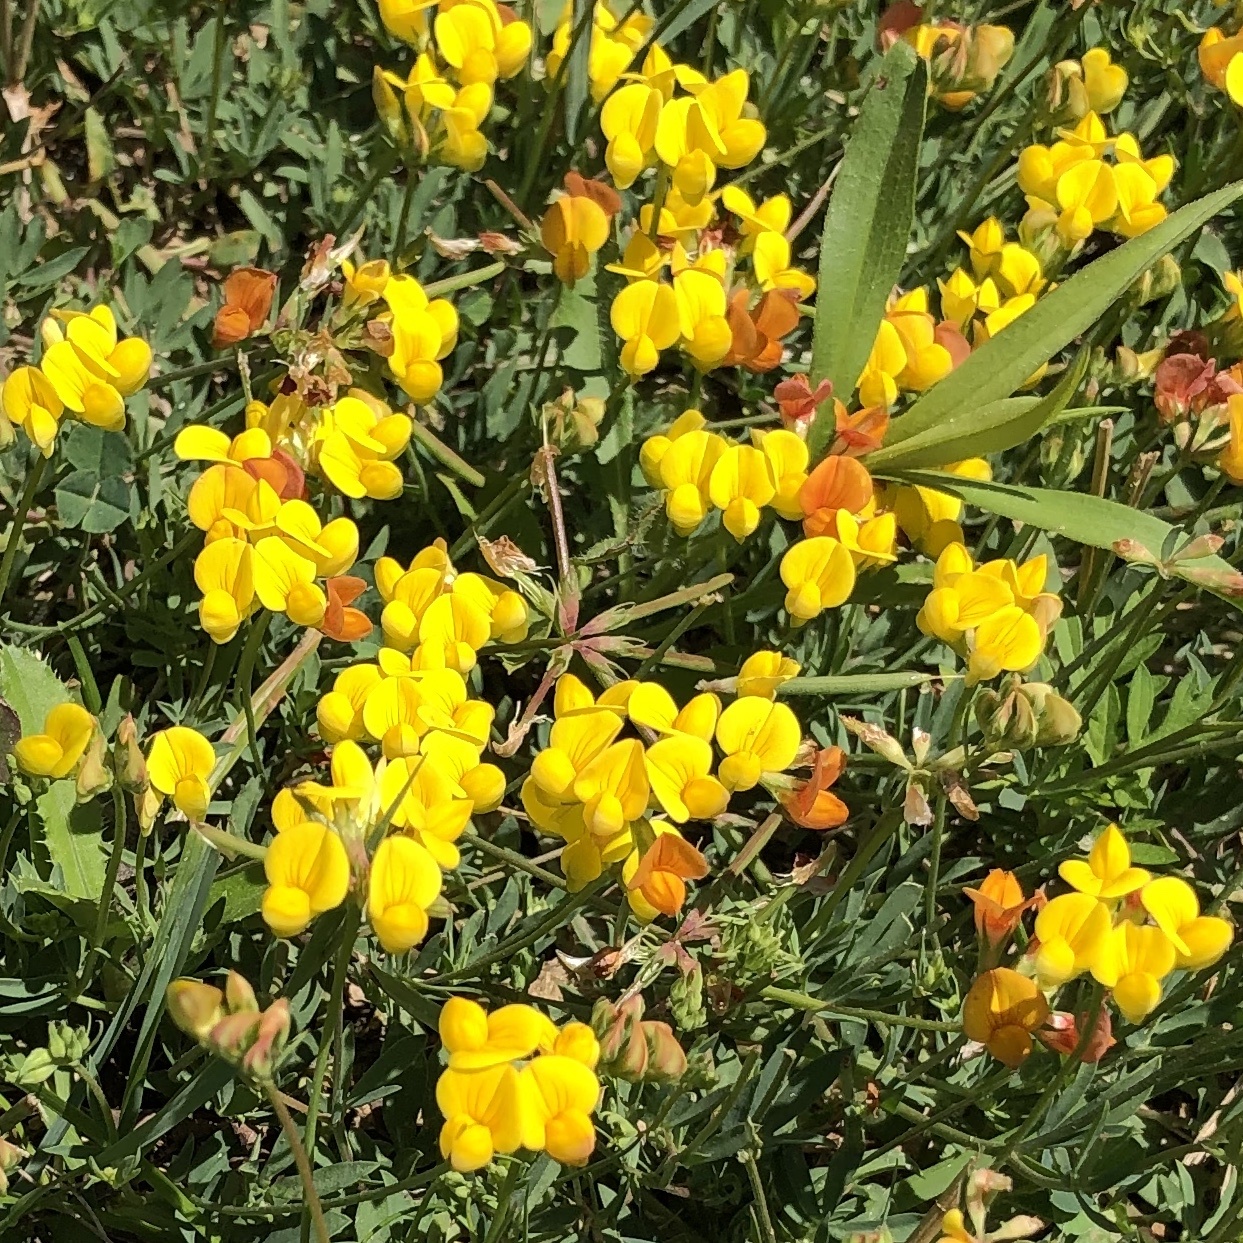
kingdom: Plantae
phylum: Tracheophyta
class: Magnoliopsida
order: Fabales
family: Fabaceae
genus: Lotus
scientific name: Lotus corniculatus
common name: Common bird's-foot-trefoil
